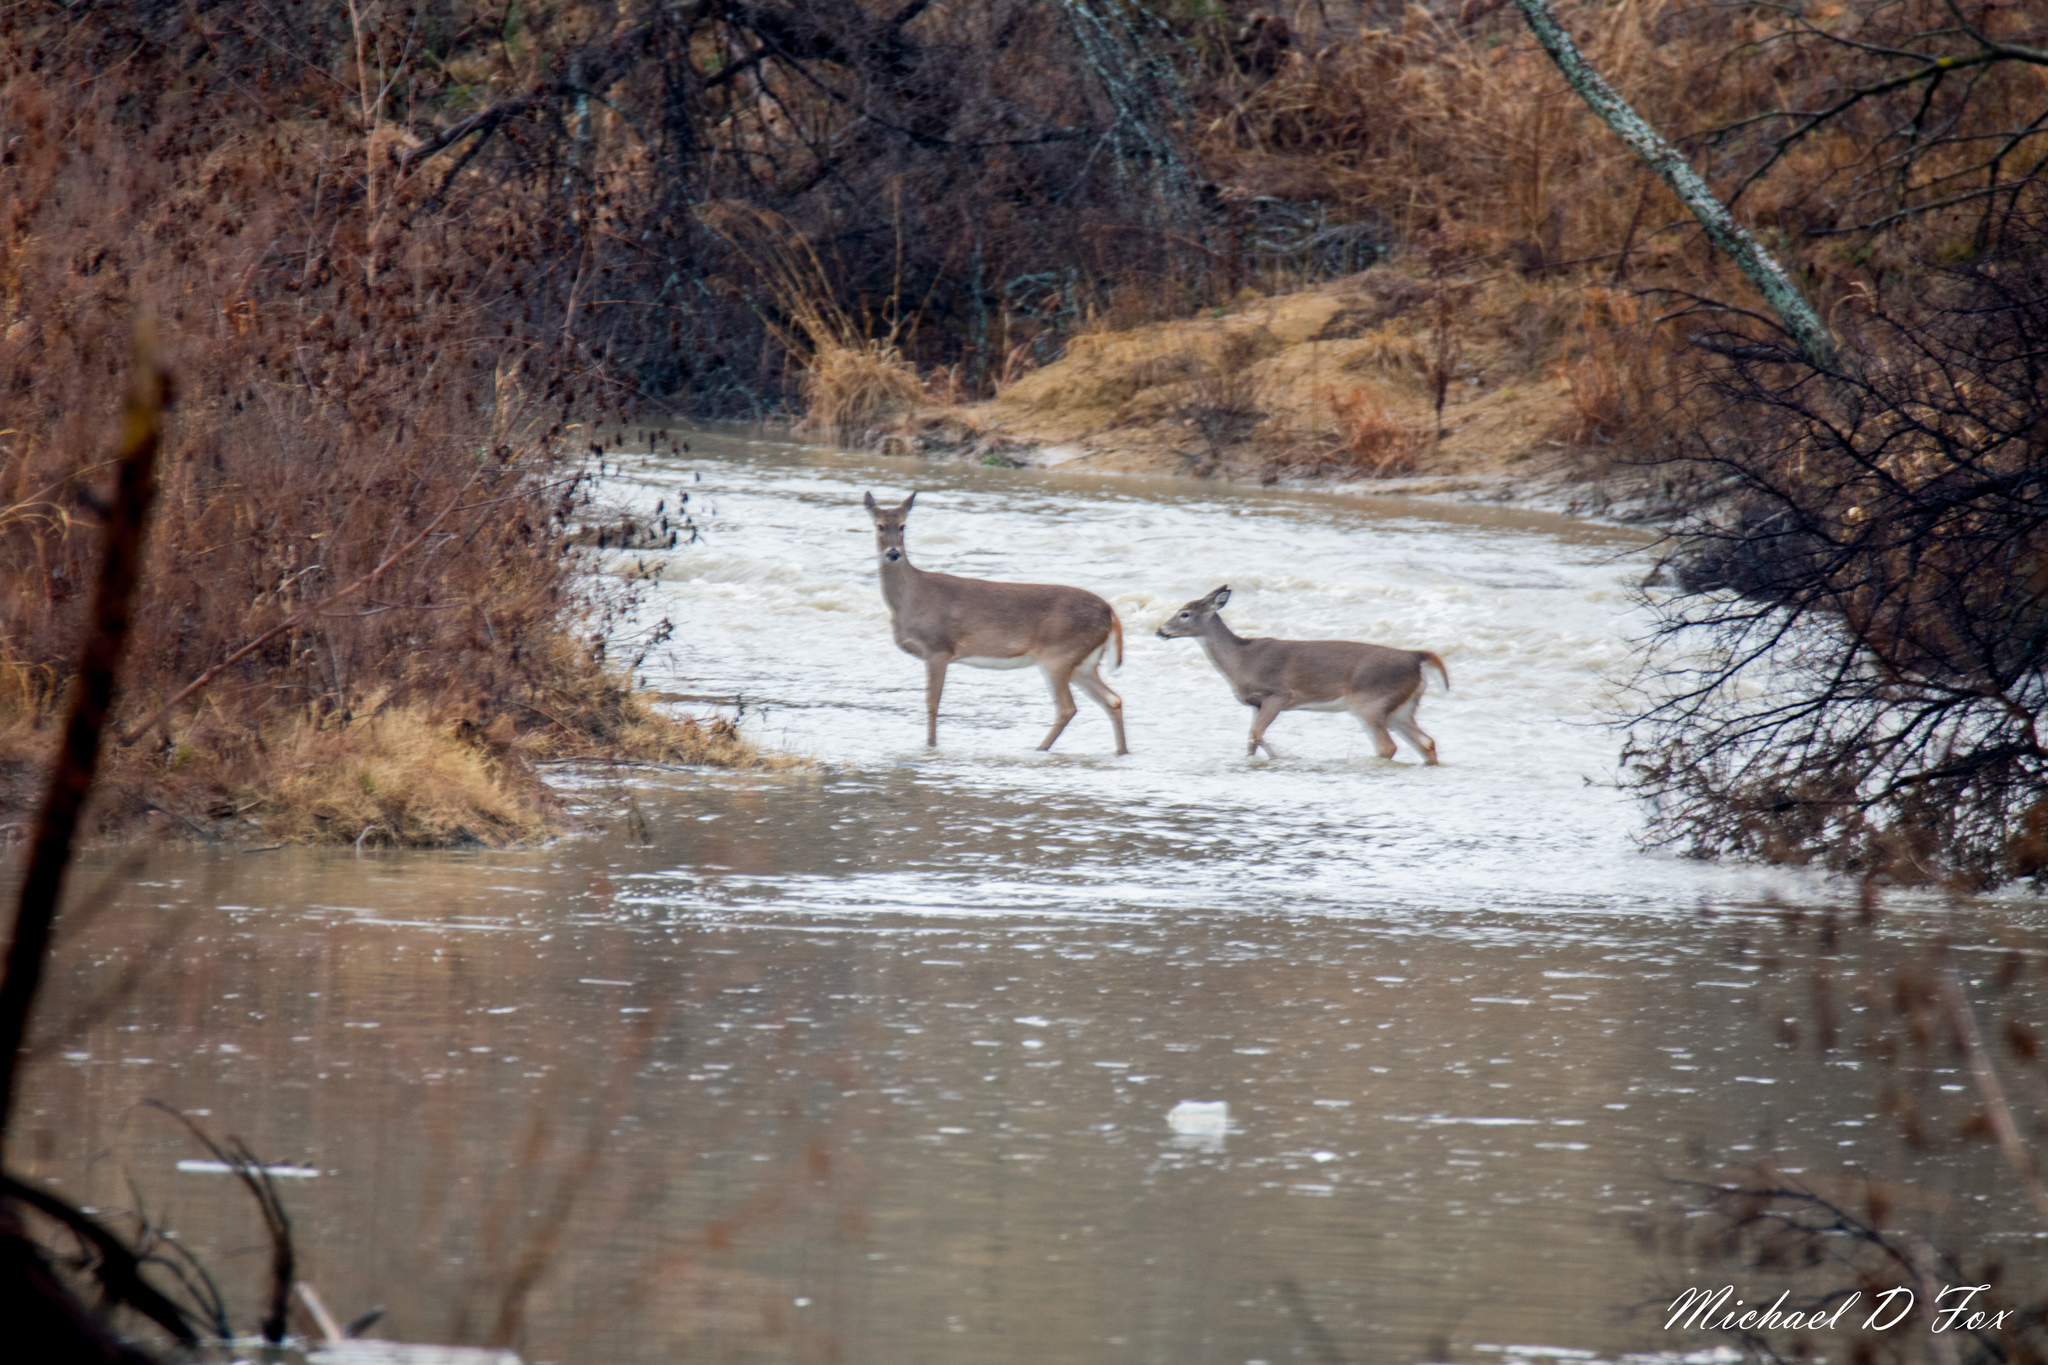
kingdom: Animalia
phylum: Chordata
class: Mammalia
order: Artiodactyla
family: Cervidae
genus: Odocoileus
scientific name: Odocoileus virginianus
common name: White-tailed deer
